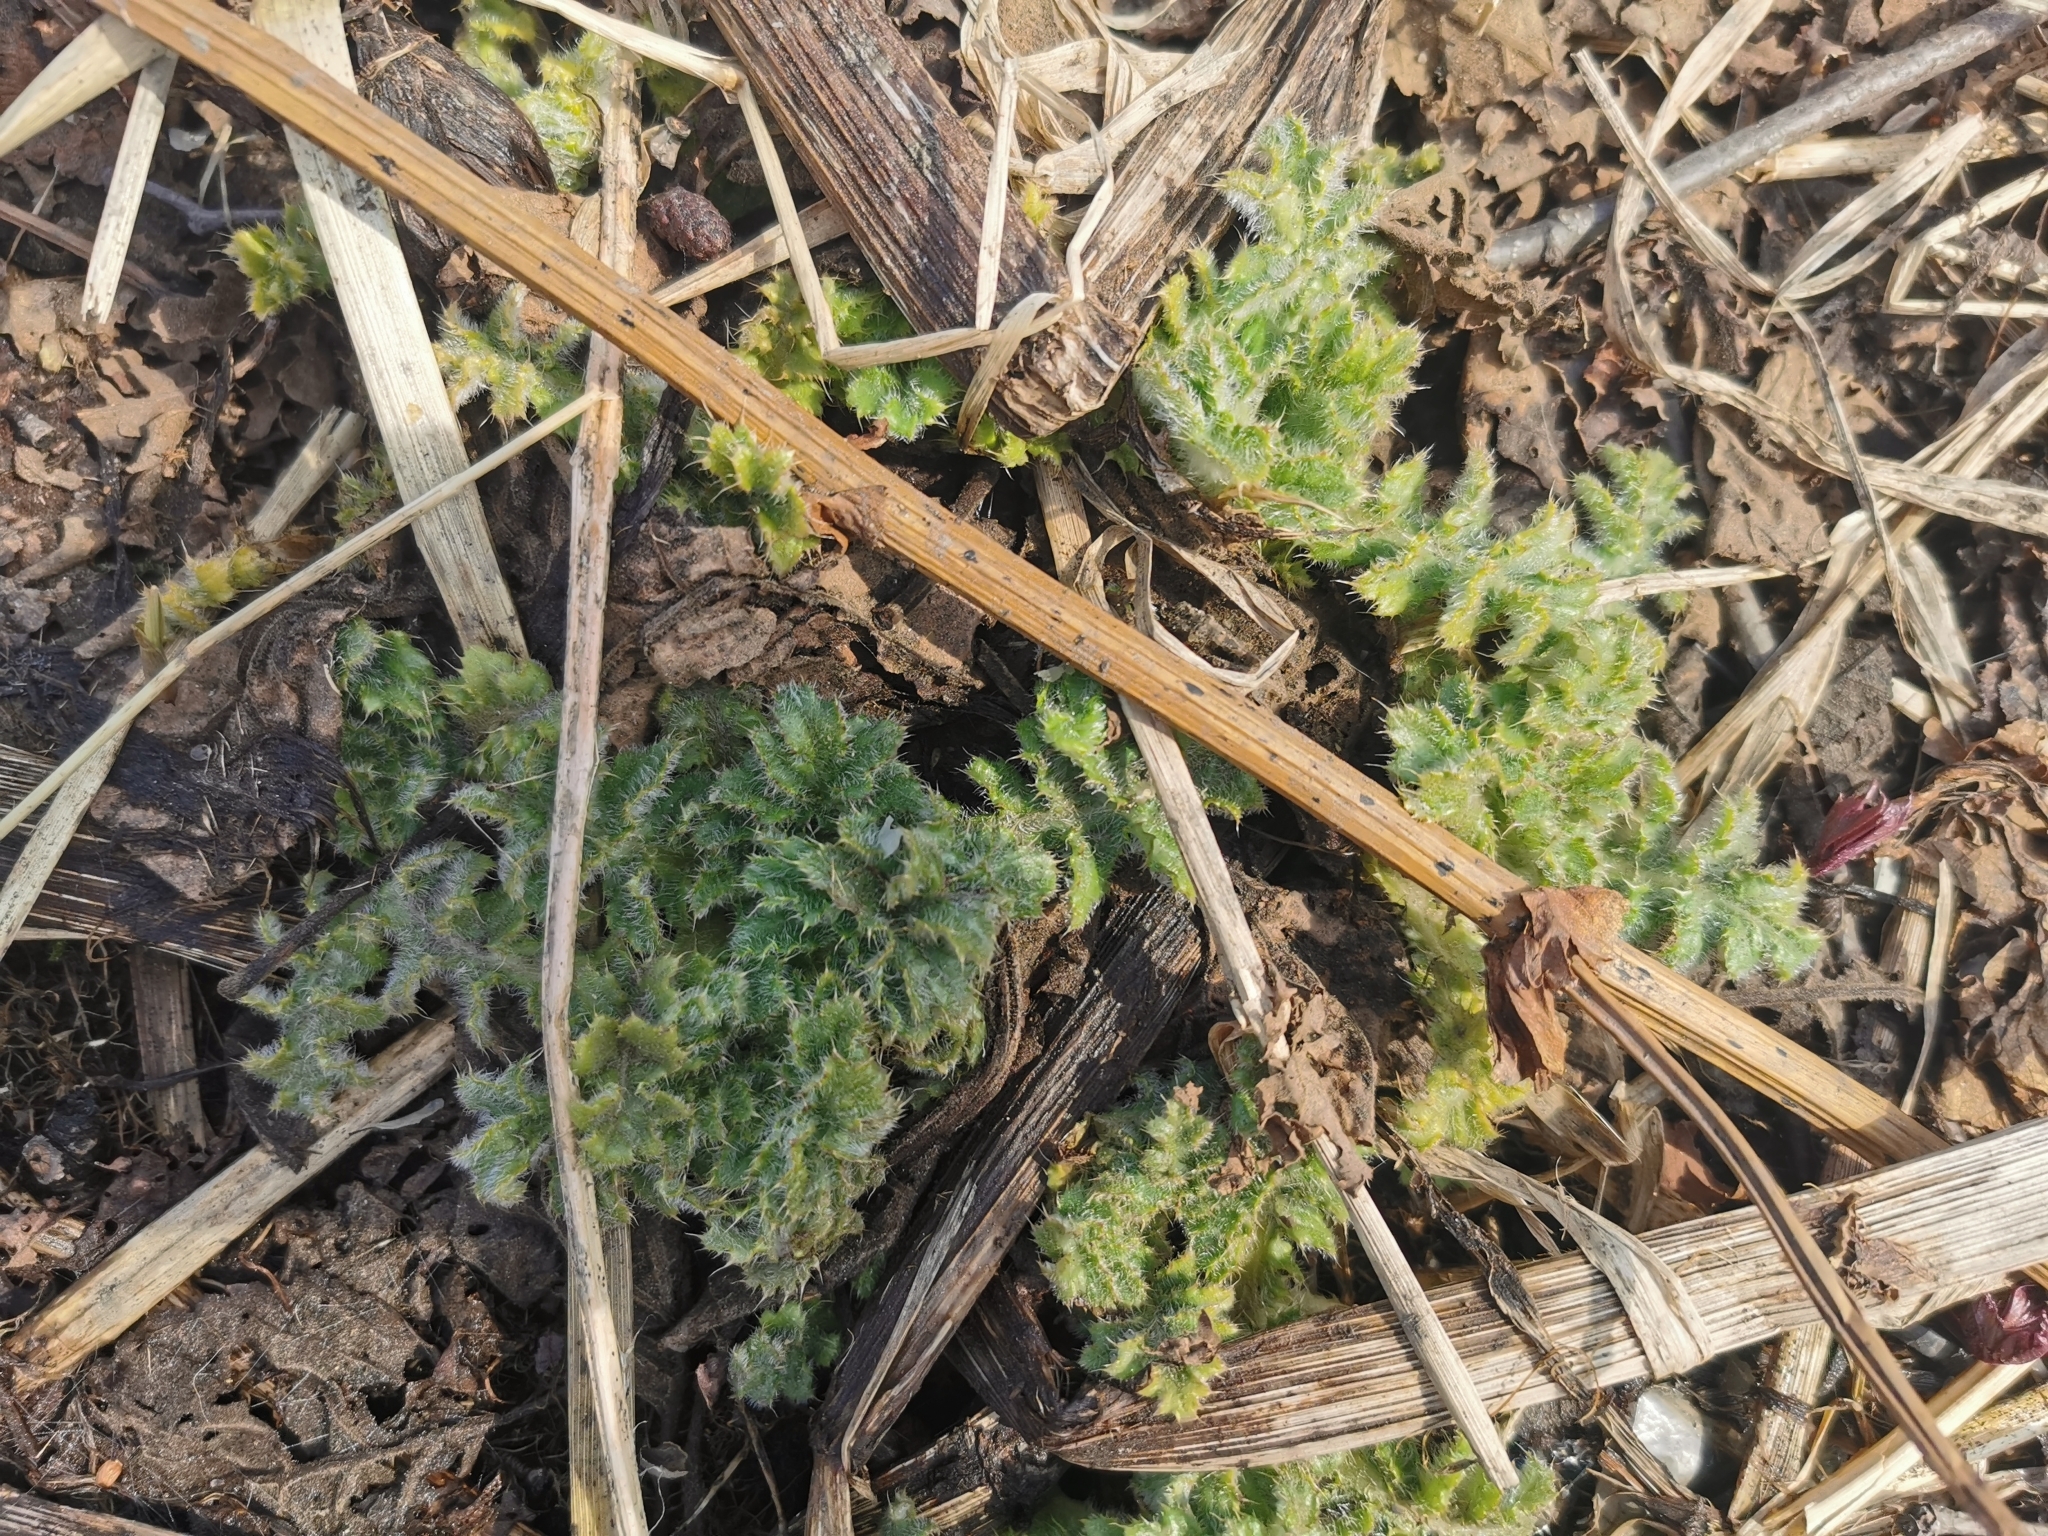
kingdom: Plantae
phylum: Tracheophyta
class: Magnoliopsida
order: Asterales
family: Asteraceae
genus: Cirsium
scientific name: Cirsium kamtschaticum
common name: Kamchatka thistle
